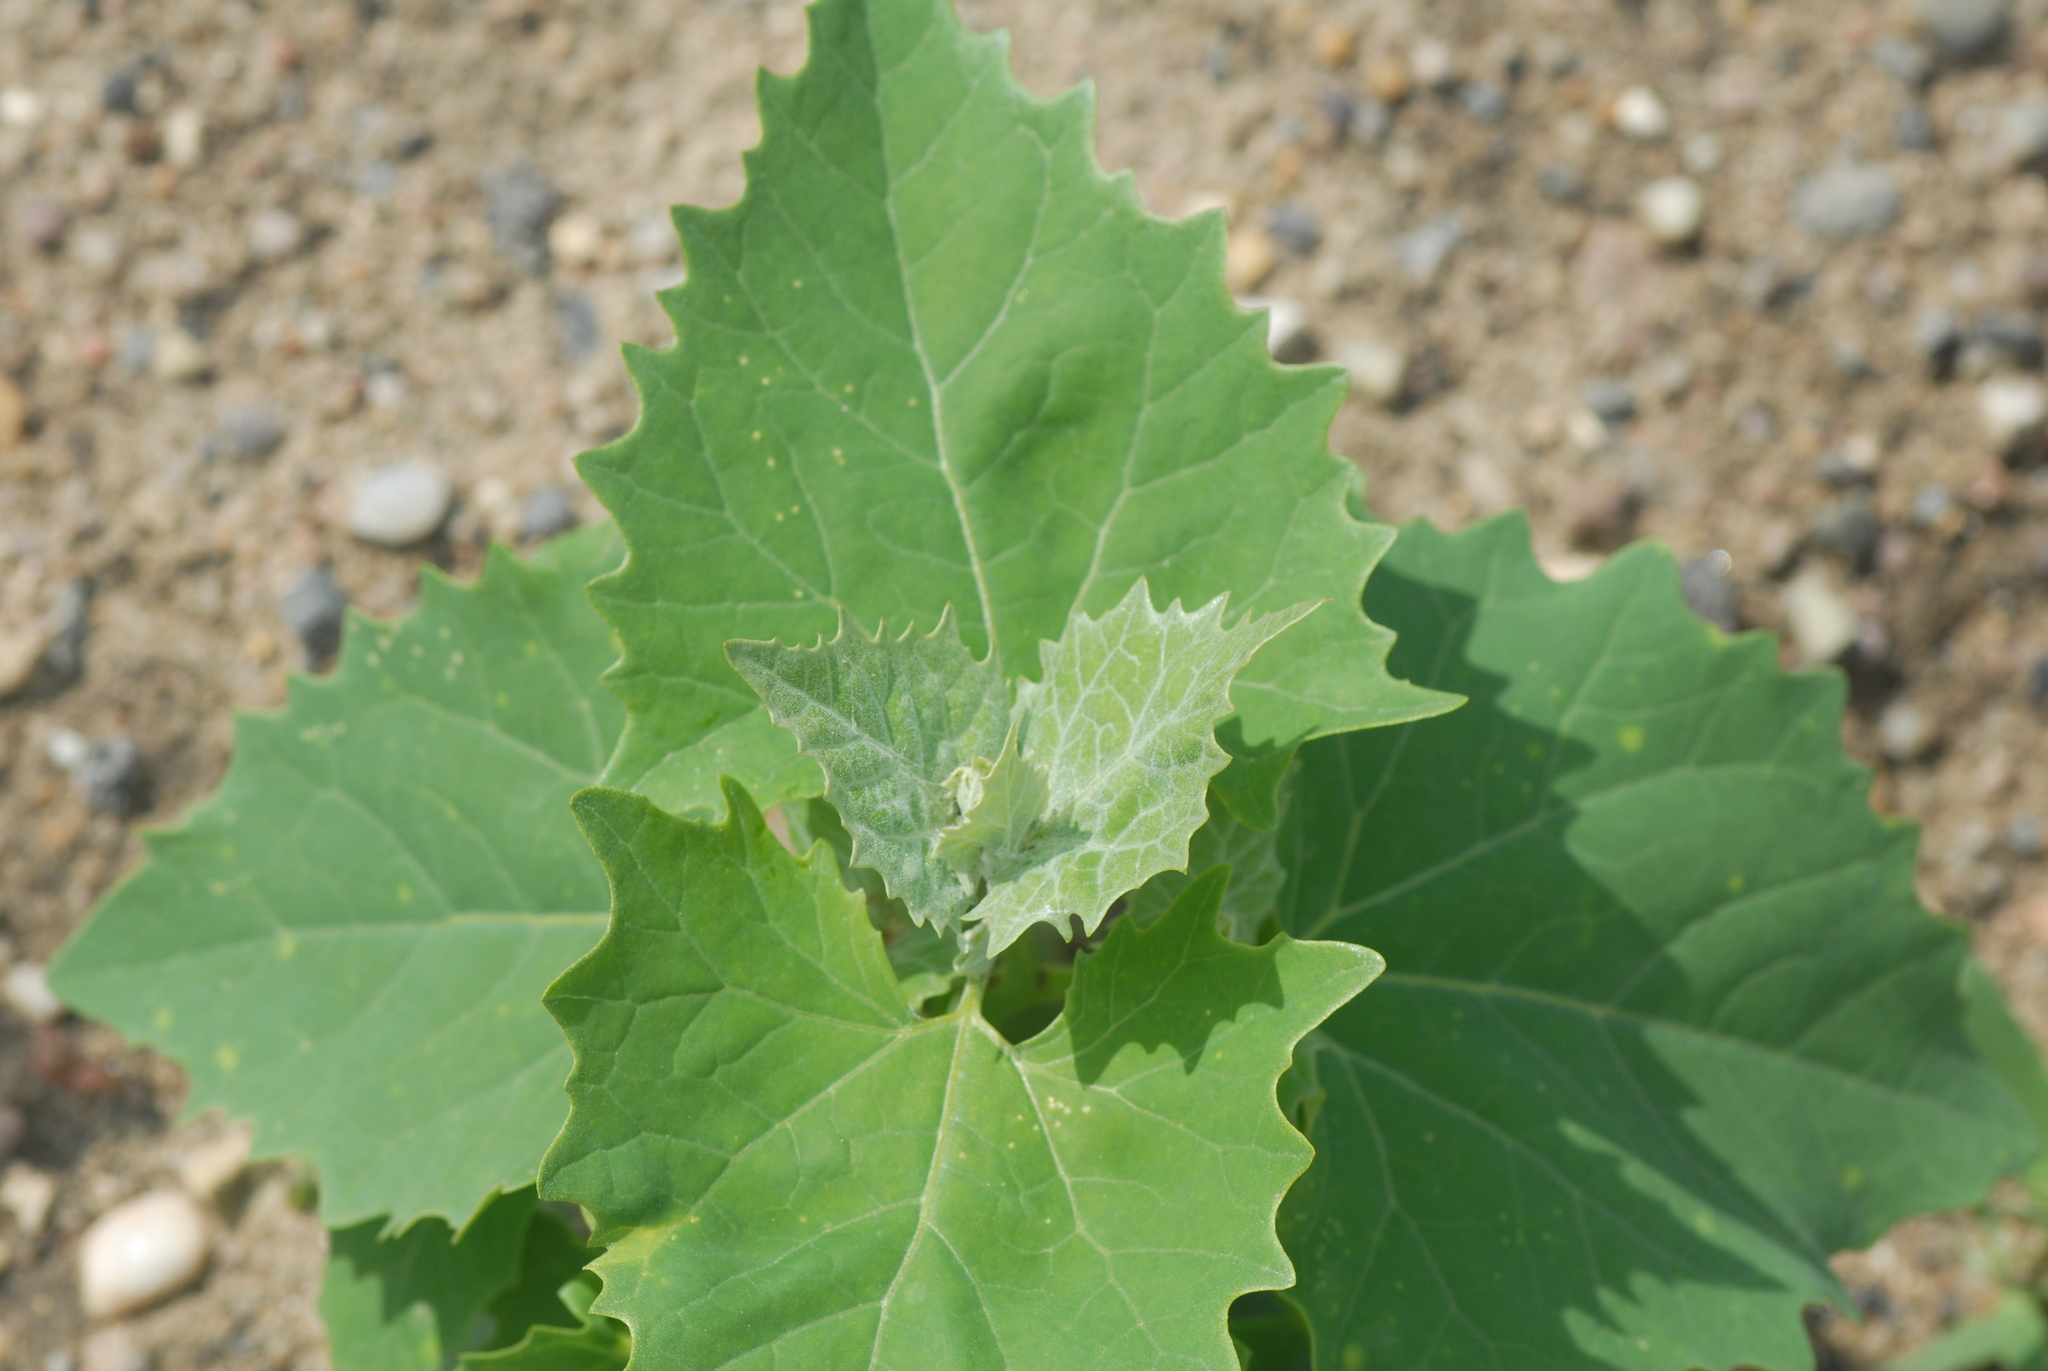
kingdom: Plantae
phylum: Tracheophyta
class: Magnoliopsida
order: Caryophyllales
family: Amaranthaceae
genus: Atriplex
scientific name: Atriplex sagittata
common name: Purple orache
